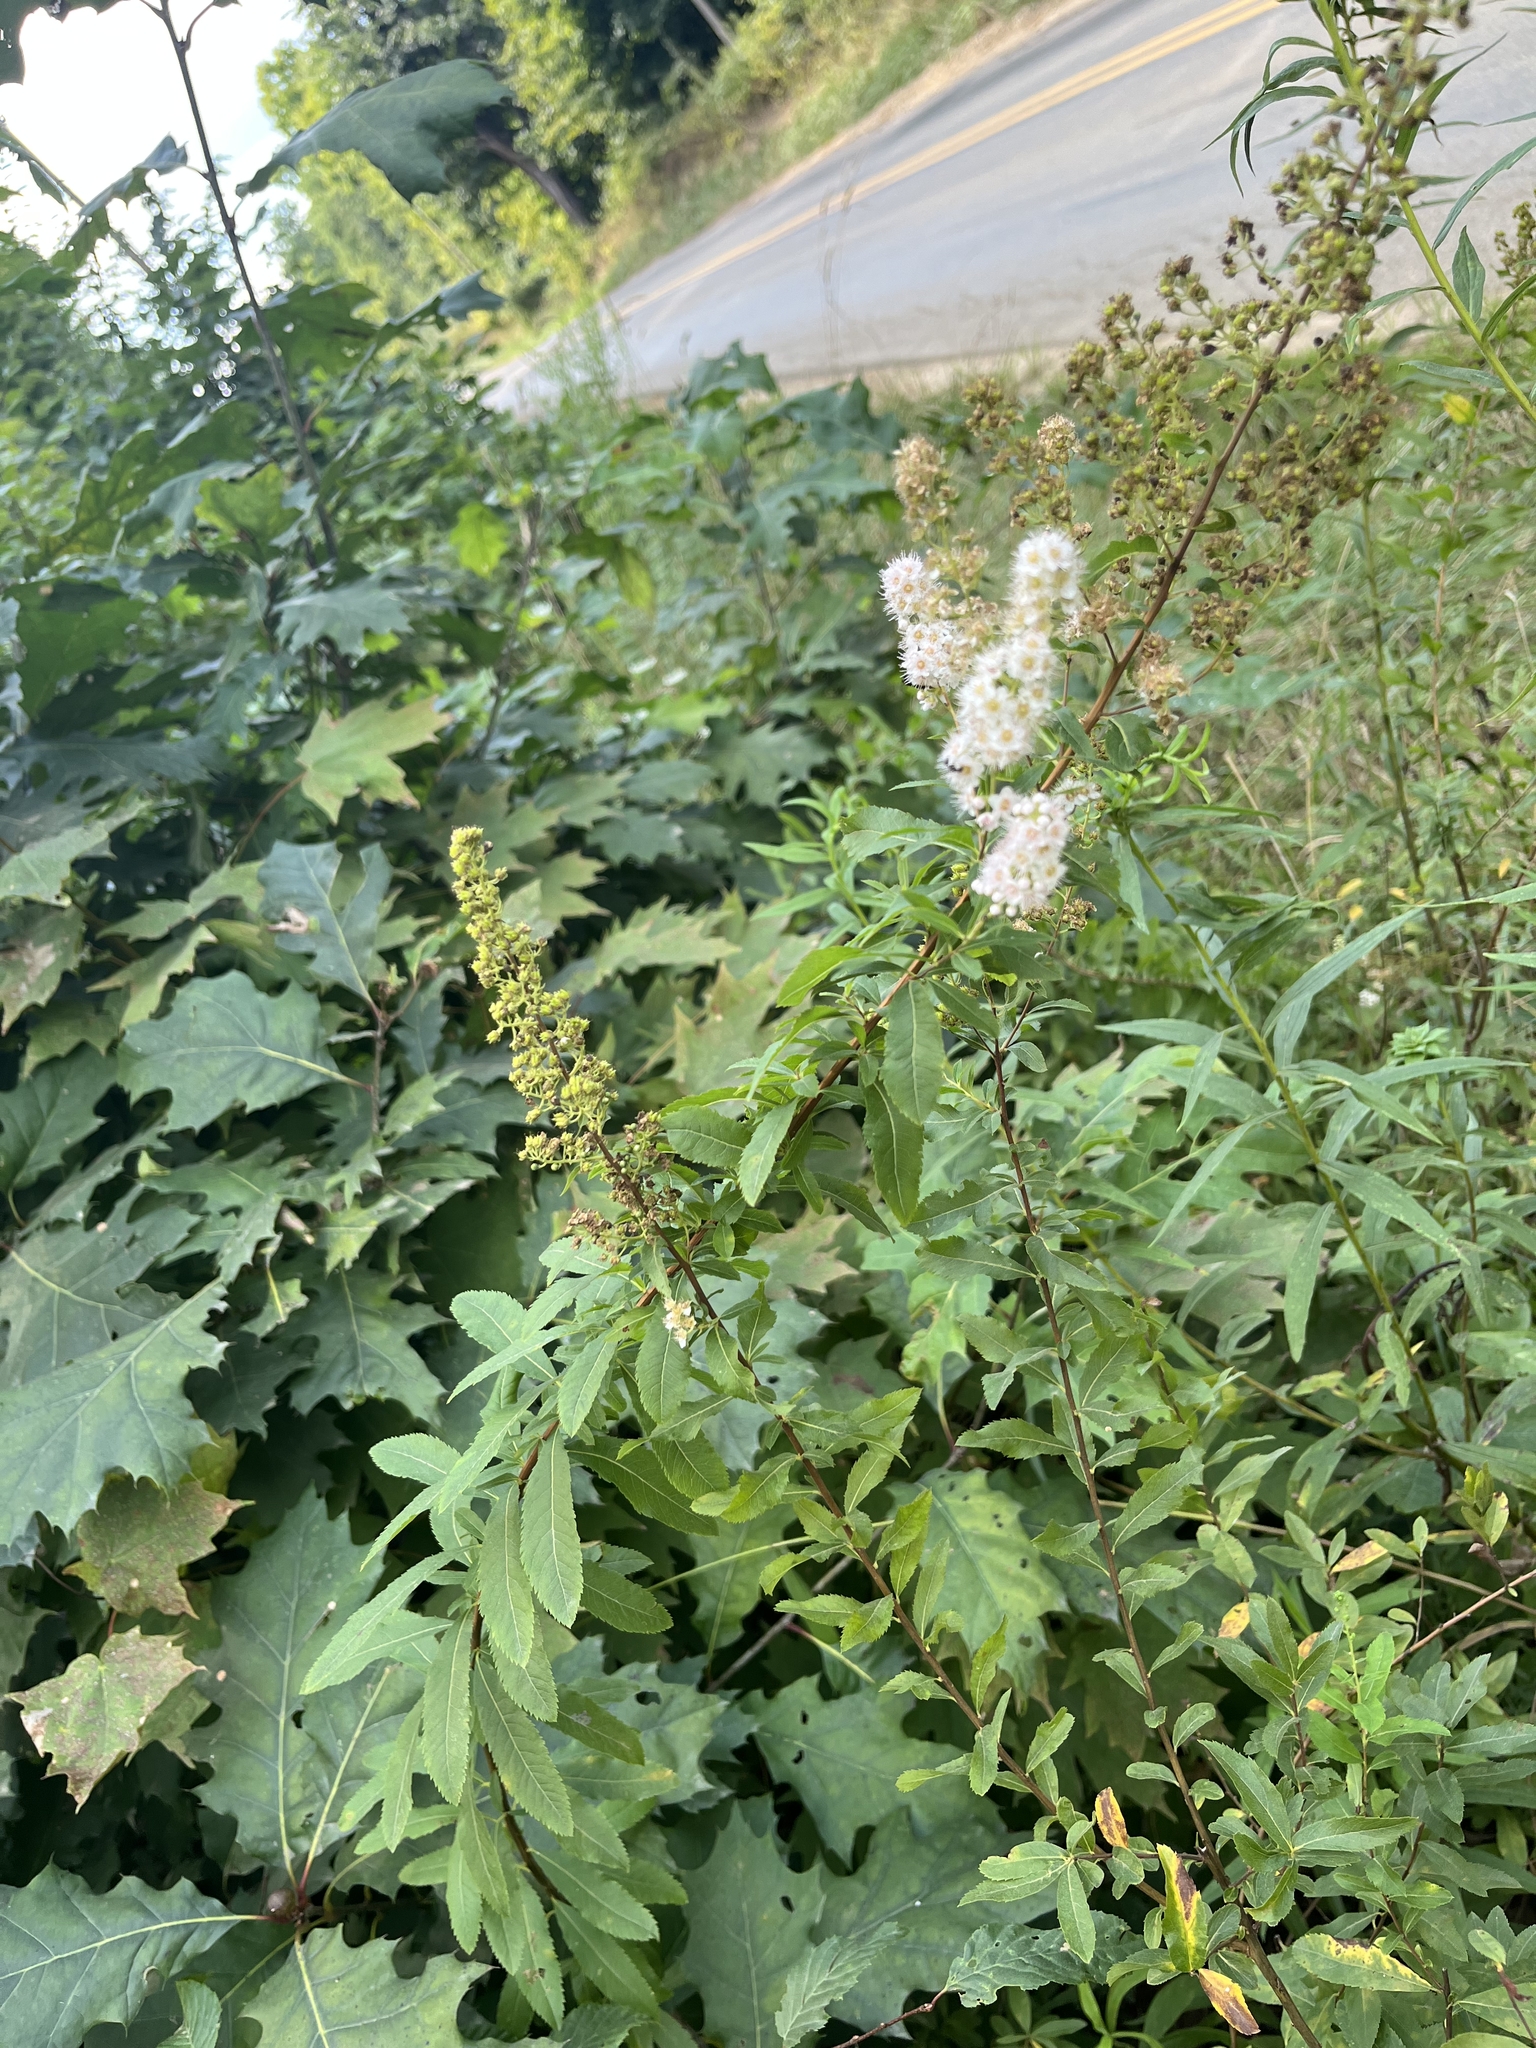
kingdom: Plantae
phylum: Tracheophyta
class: Magnoliopsida
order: Rosales
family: Rosaceae
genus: Spiraea
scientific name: Spiraea alba
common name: Pale bridewort
